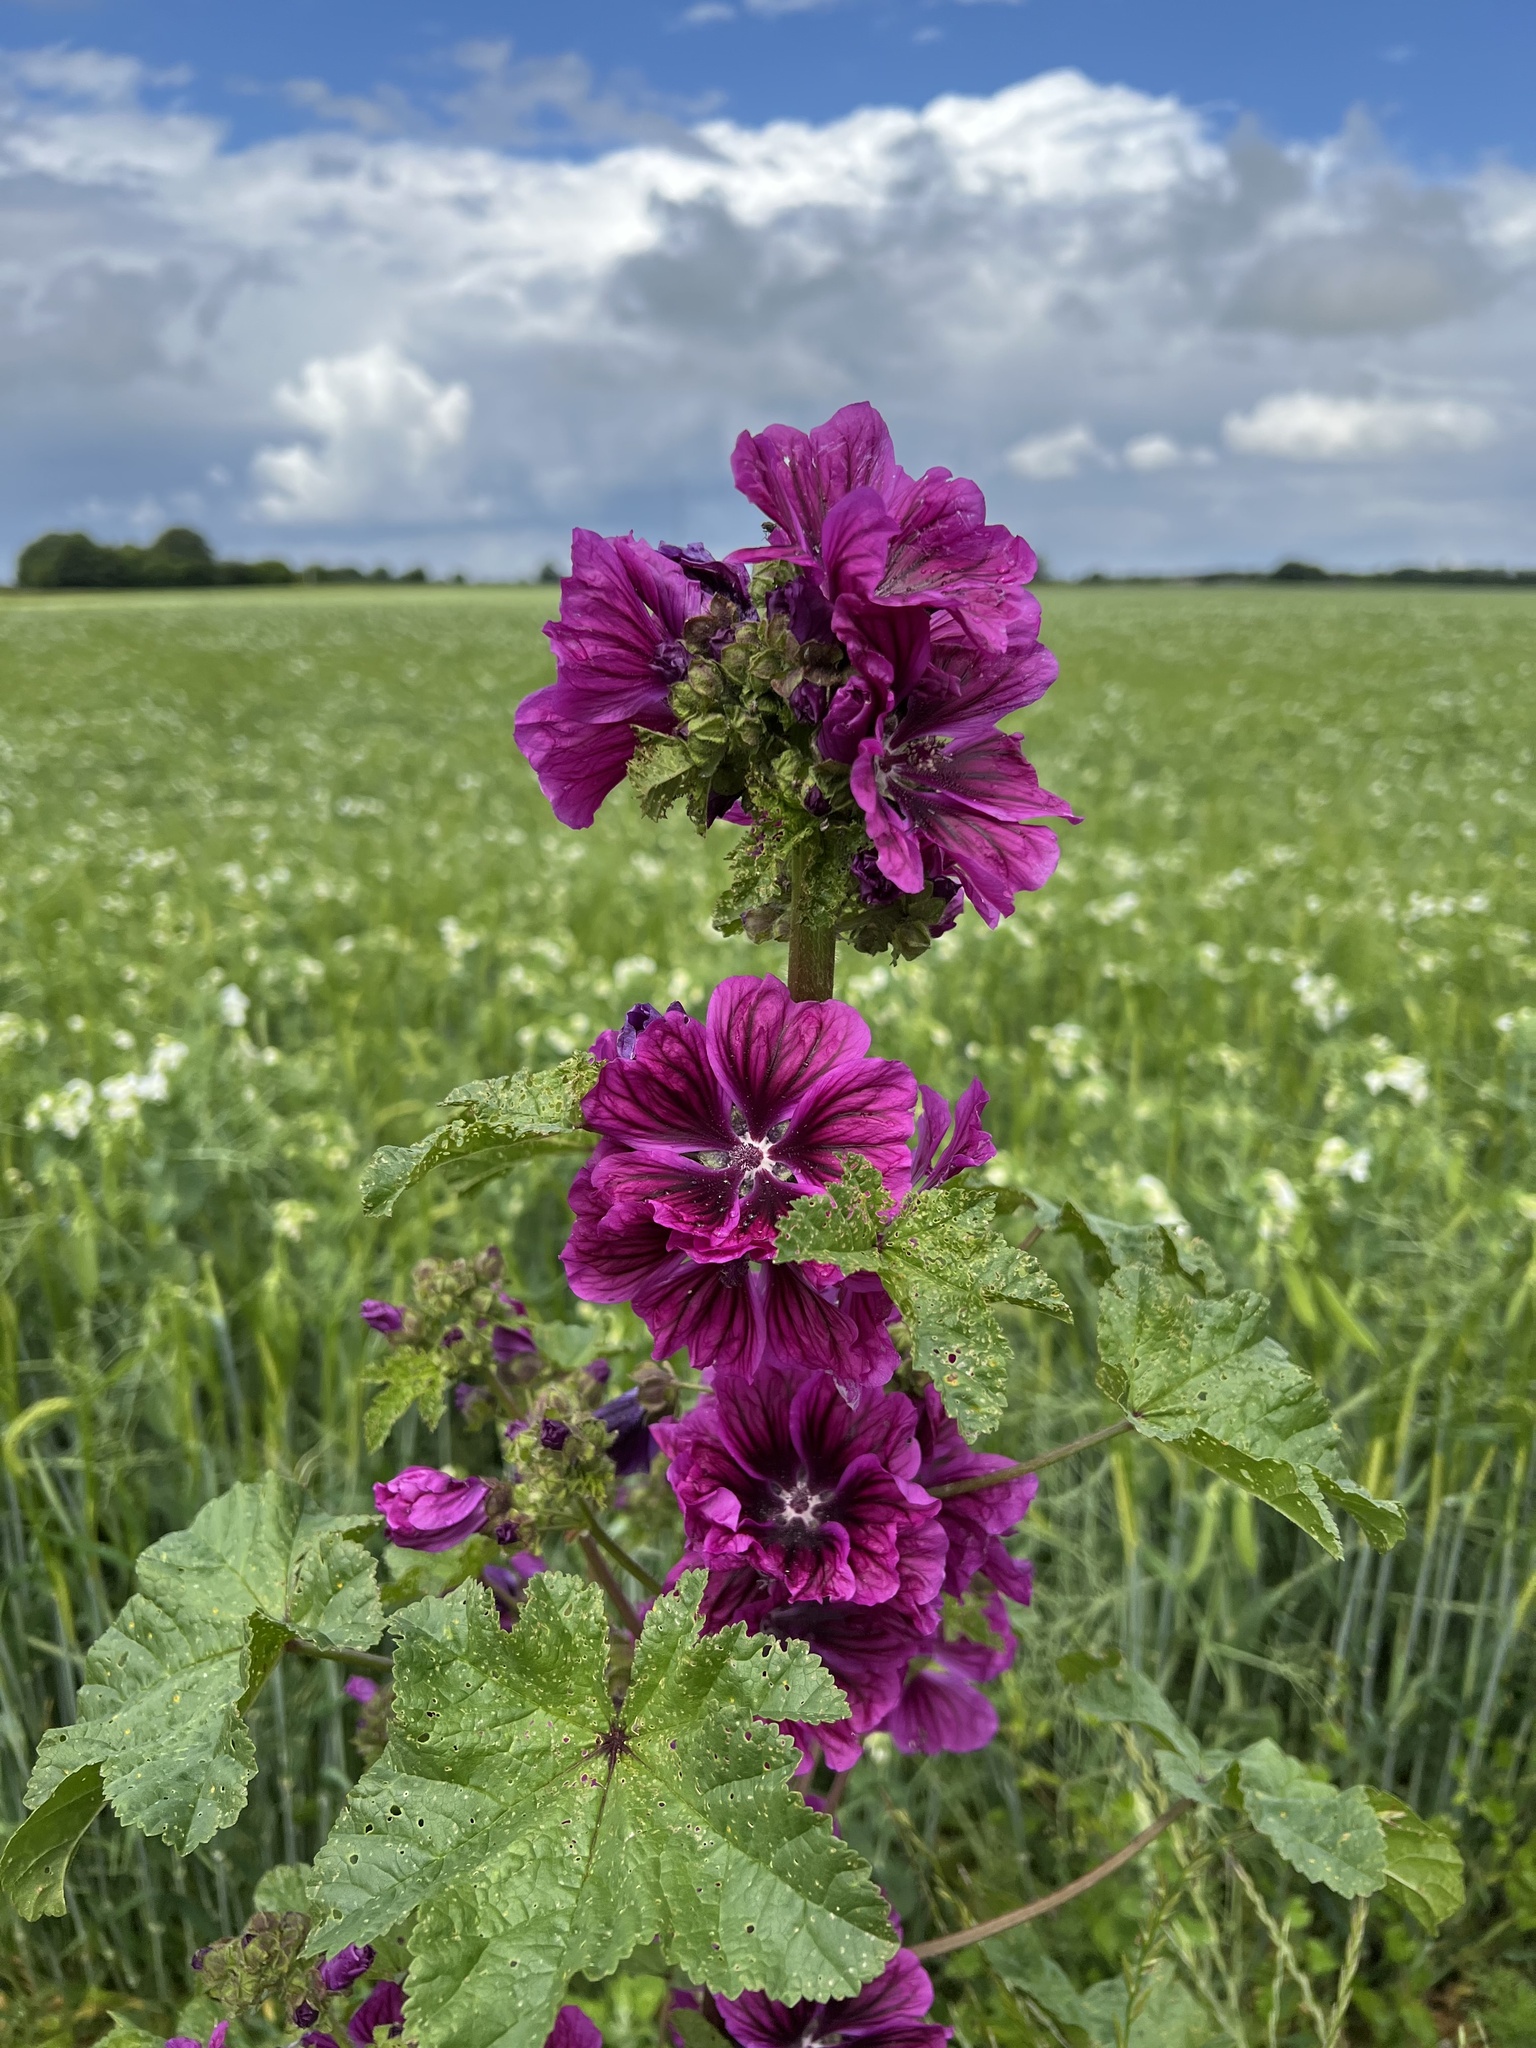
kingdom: Plantae
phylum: Tracheophyta
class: Magnoliopsida
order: Malvales
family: Malvaceae
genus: Malva
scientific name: Malva sylvestris
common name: Common mallow
